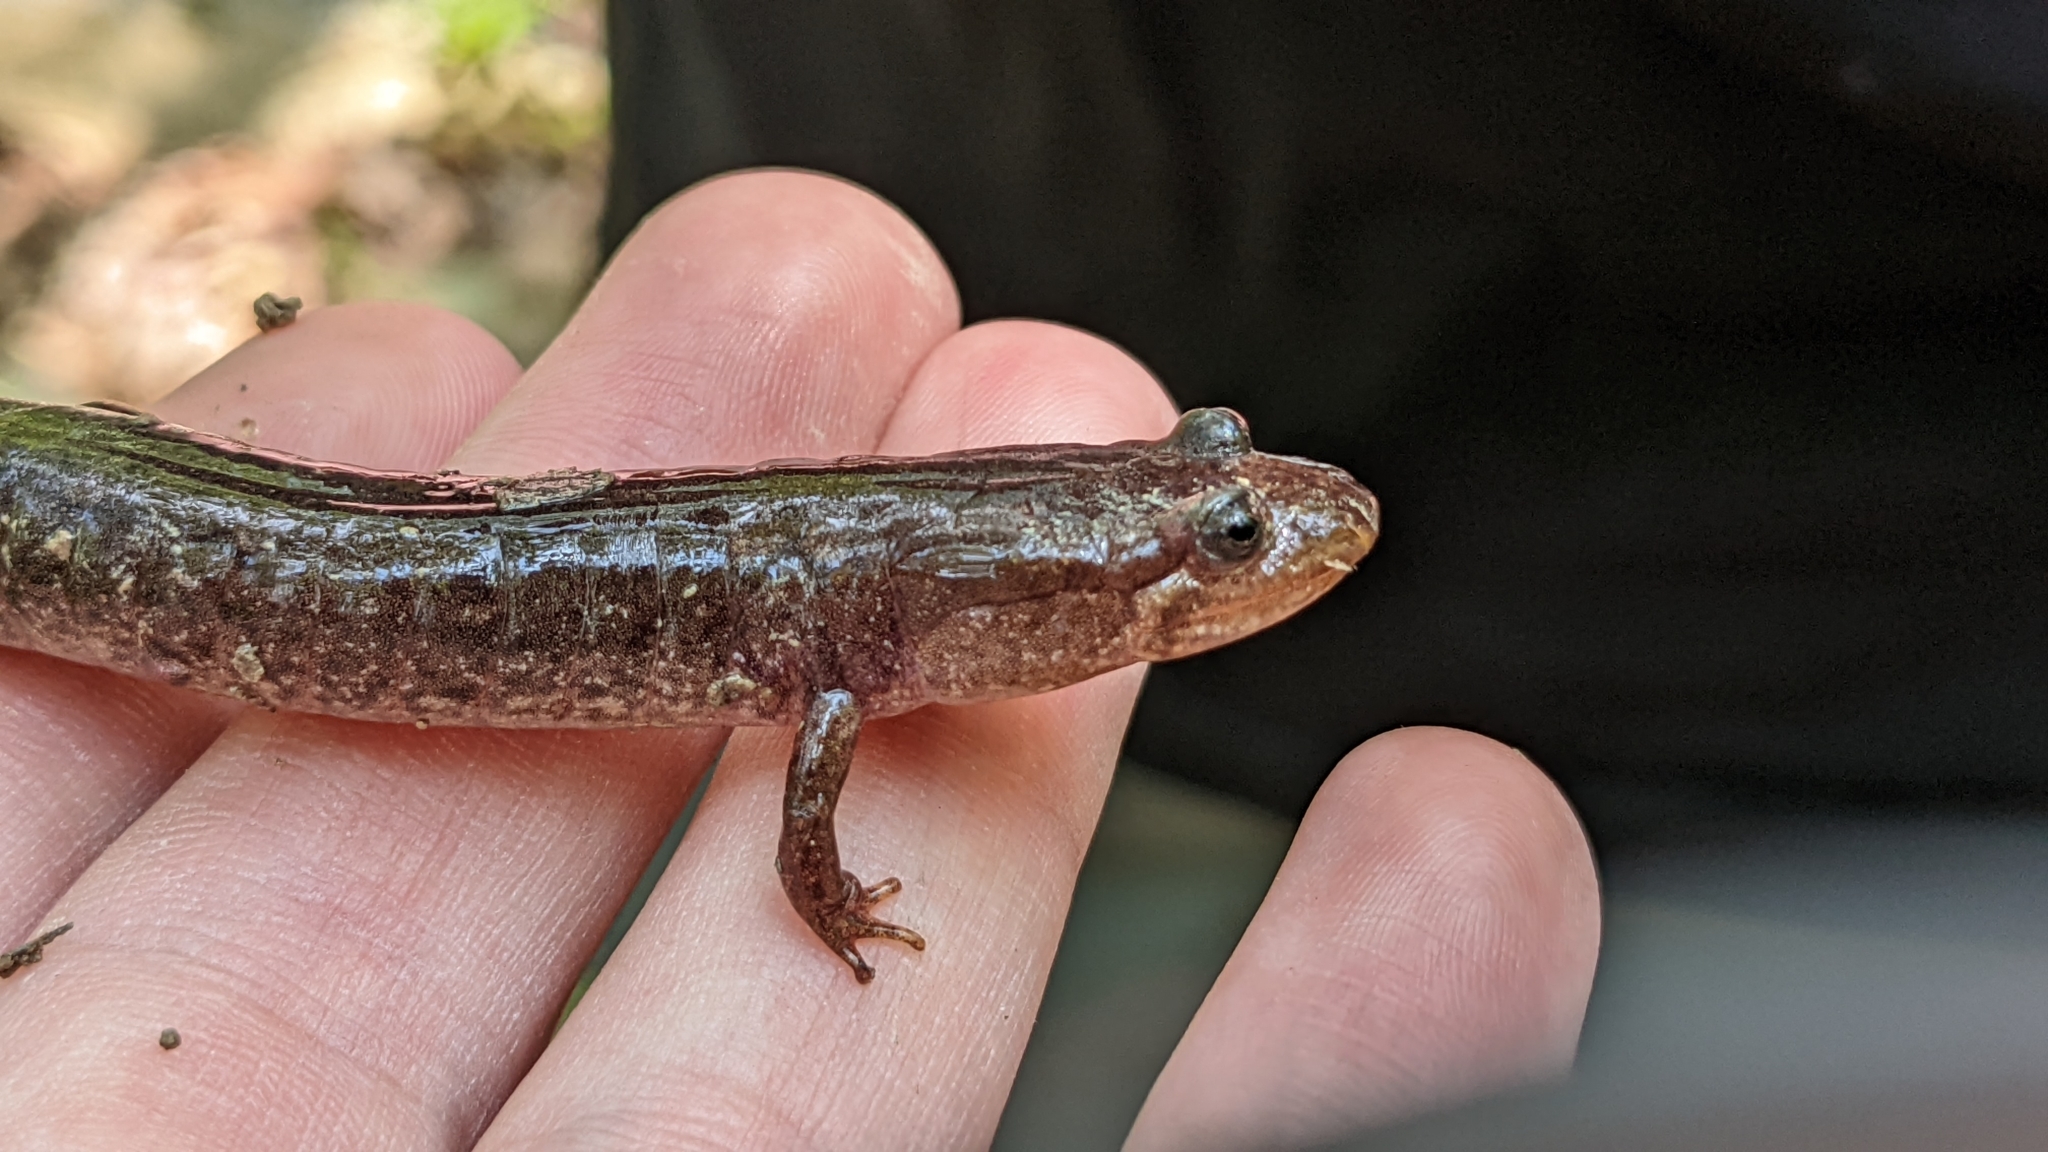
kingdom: Animalia
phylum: Chordata
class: Amphibia
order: Caudata
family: Plethodontidae
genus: Desmognathus
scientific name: Desmognathus brimleyorum
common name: Ouachita dusky salamander
